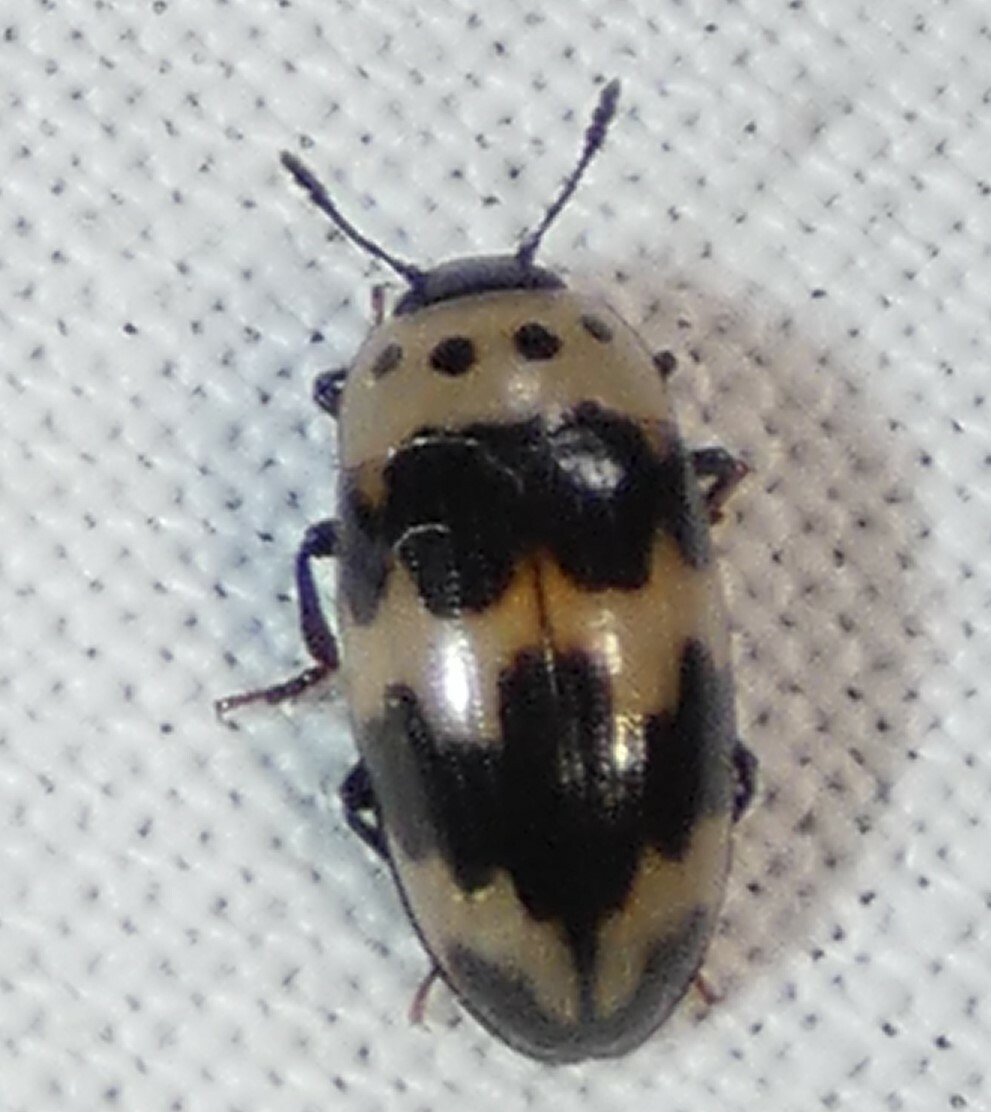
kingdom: Animalia
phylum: Arthropoda
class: Insecta
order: Coleoptera
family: Erotylidae
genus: Ischyrus
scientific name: Ischyrus quadripunctatus
